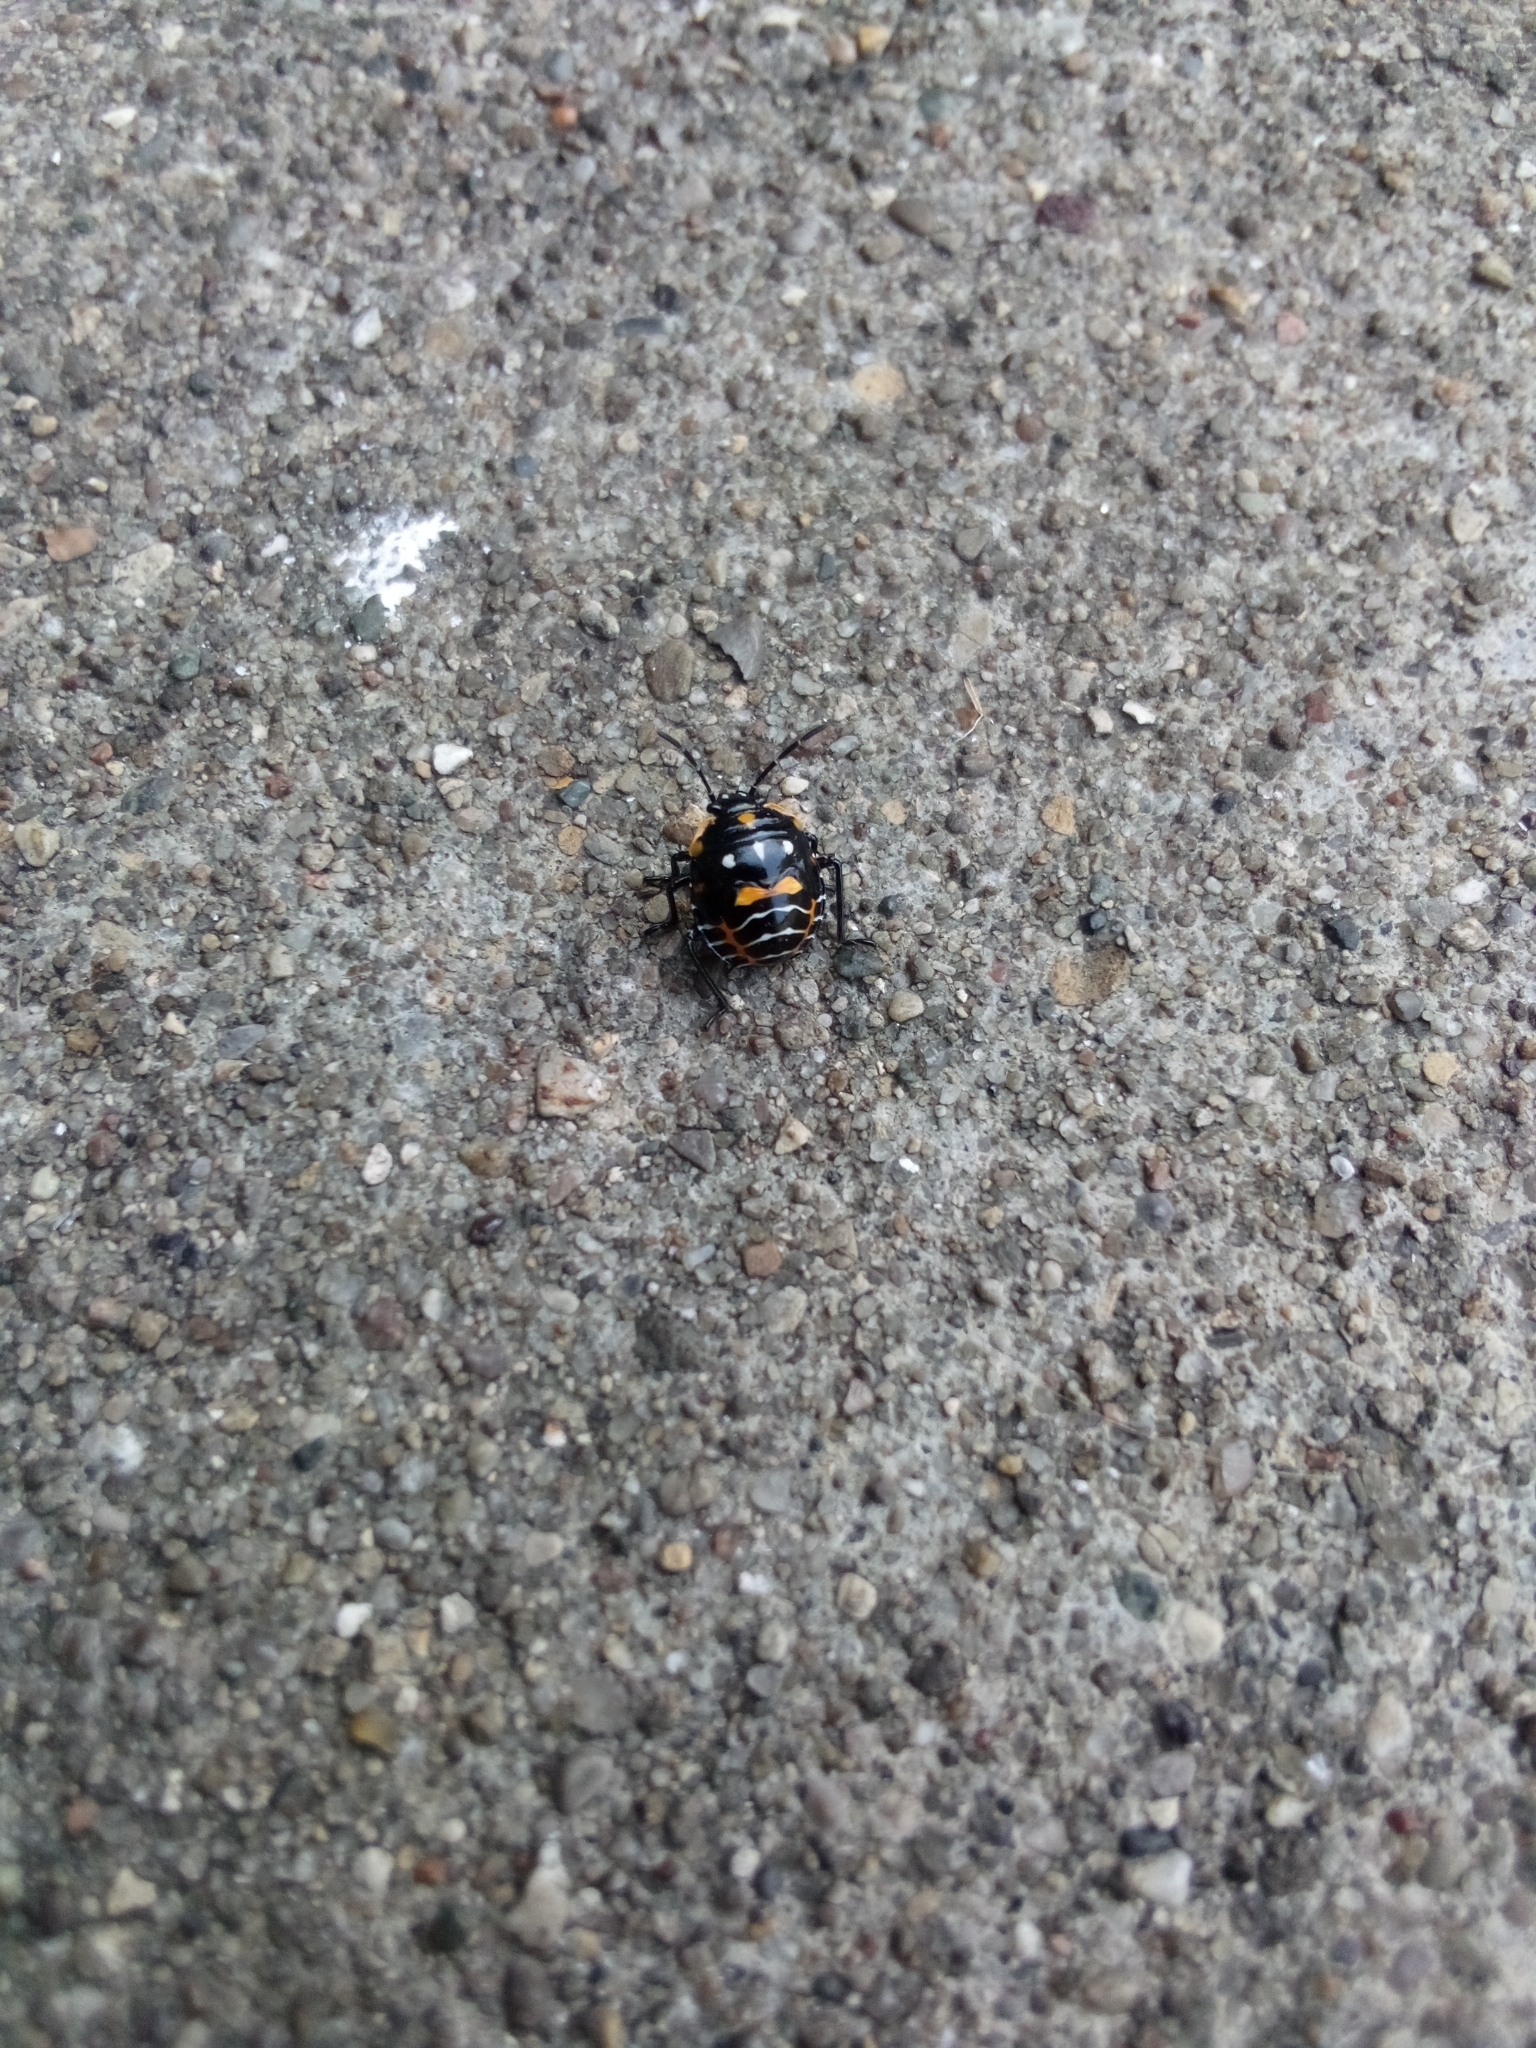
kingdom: Animalia
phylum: Arthropoda
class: Insecta
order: Hemiptera
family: Pentatomidae
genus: Murgantia
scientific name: Murgantia histrionica
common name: Harlequin bug
